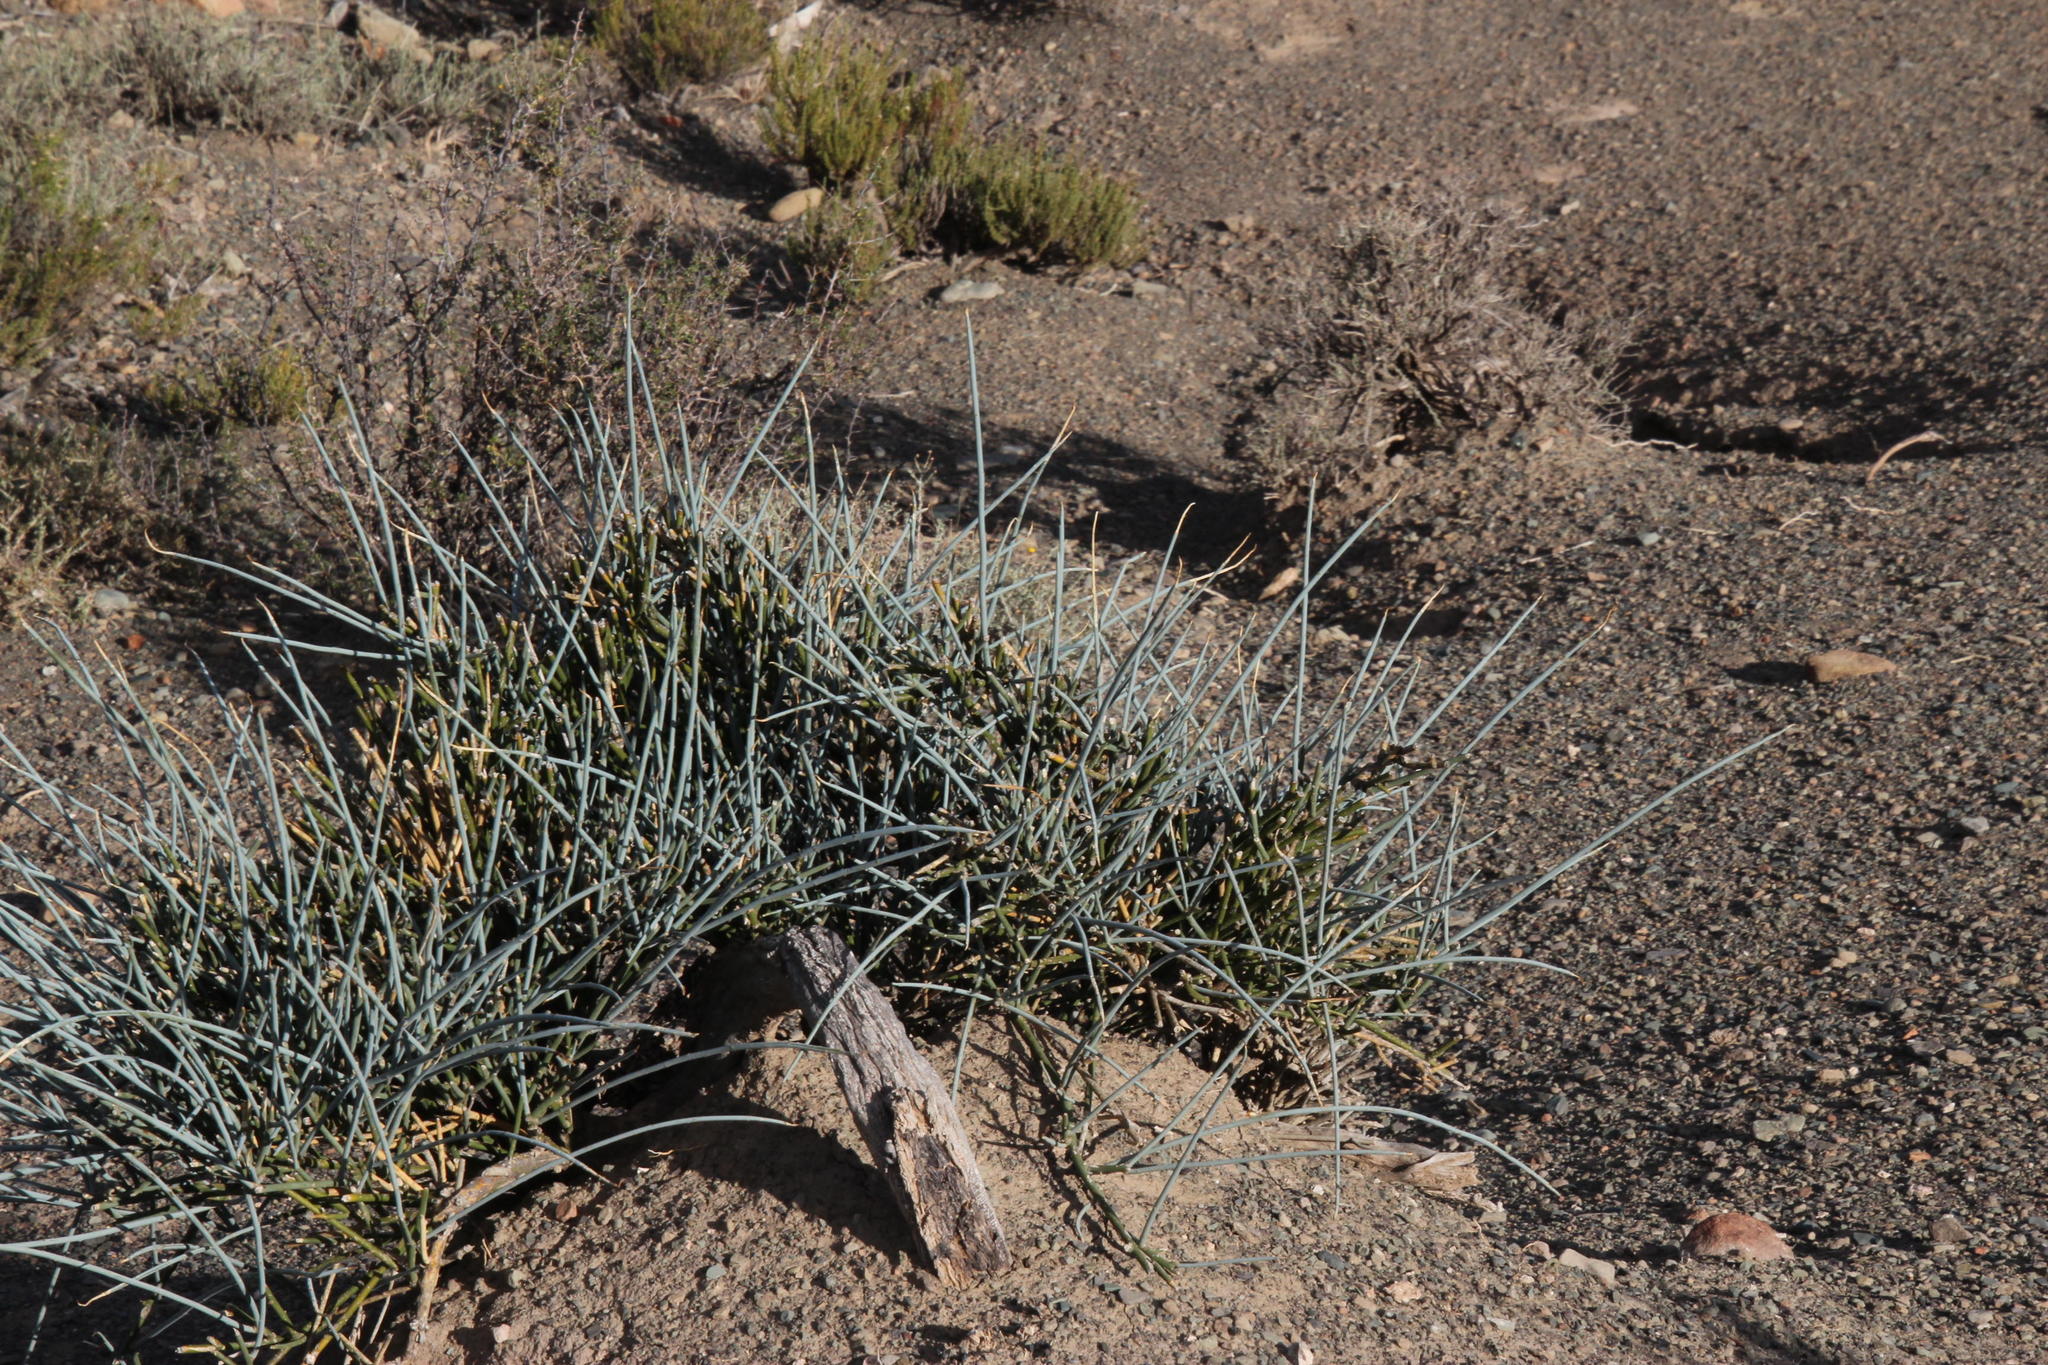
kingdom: Plantae
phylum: Tracheophyta
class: Magnoliopsida
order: Brassicales
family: Capparaceae
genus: Cadaba
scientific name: Cadaba aphylla
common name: Black storm
